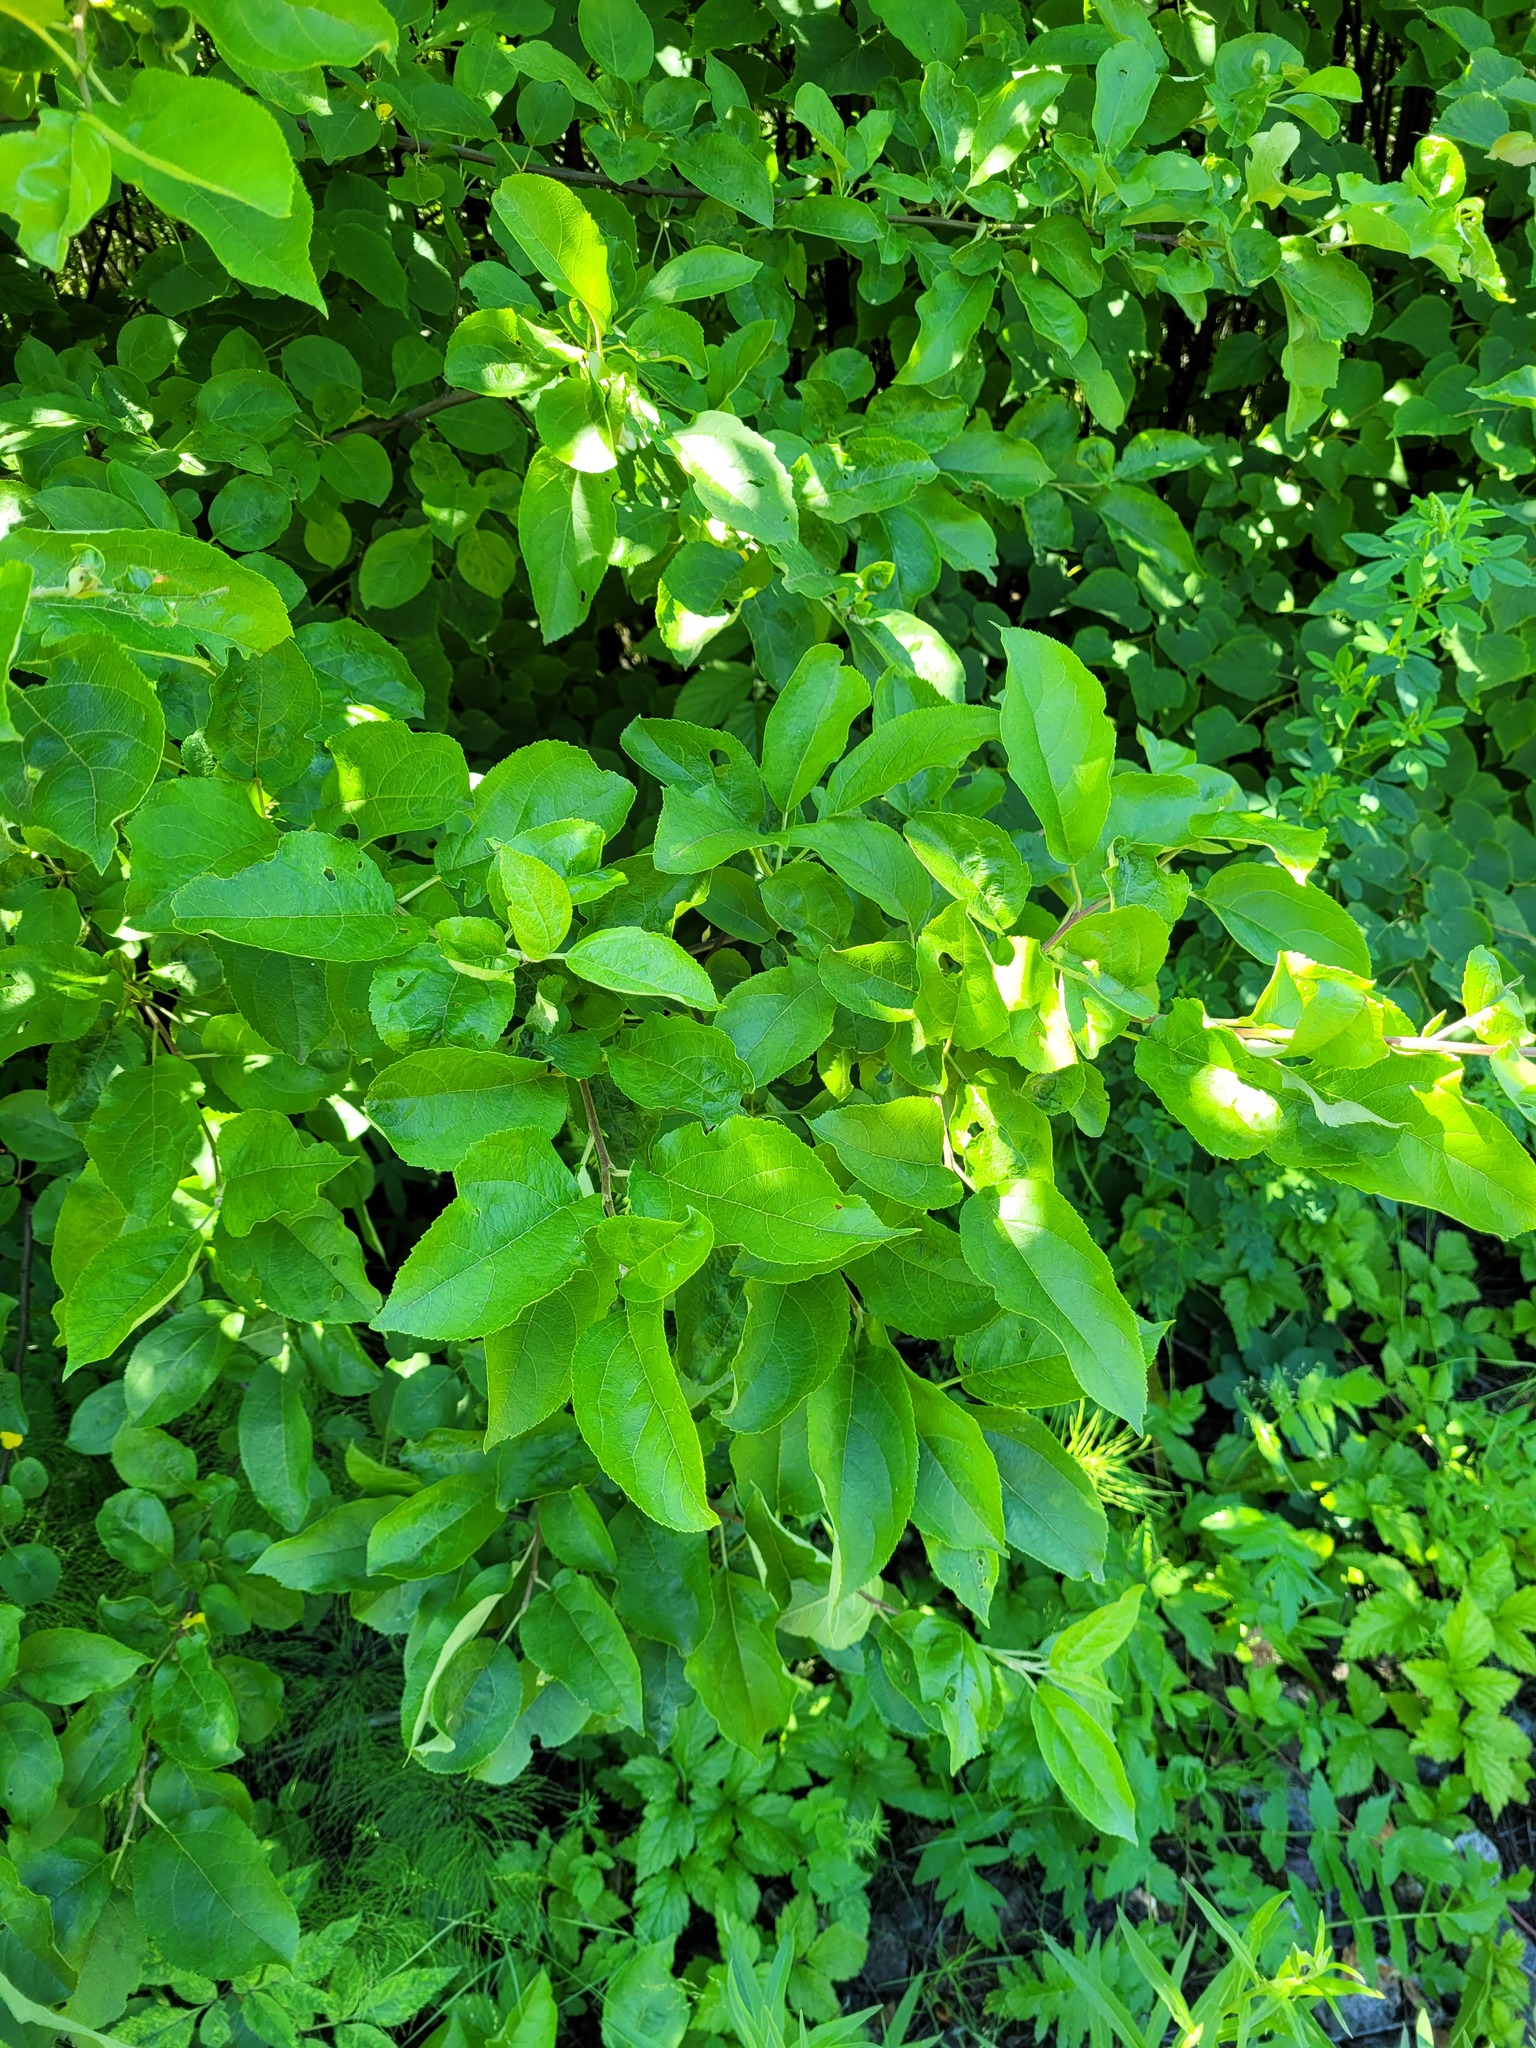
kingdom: Plantae
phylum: Tracheophyta
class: Magnoliopsida
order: Rosales
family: Rosaceae
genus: Malus
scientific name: Malus domestica
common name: Apple
